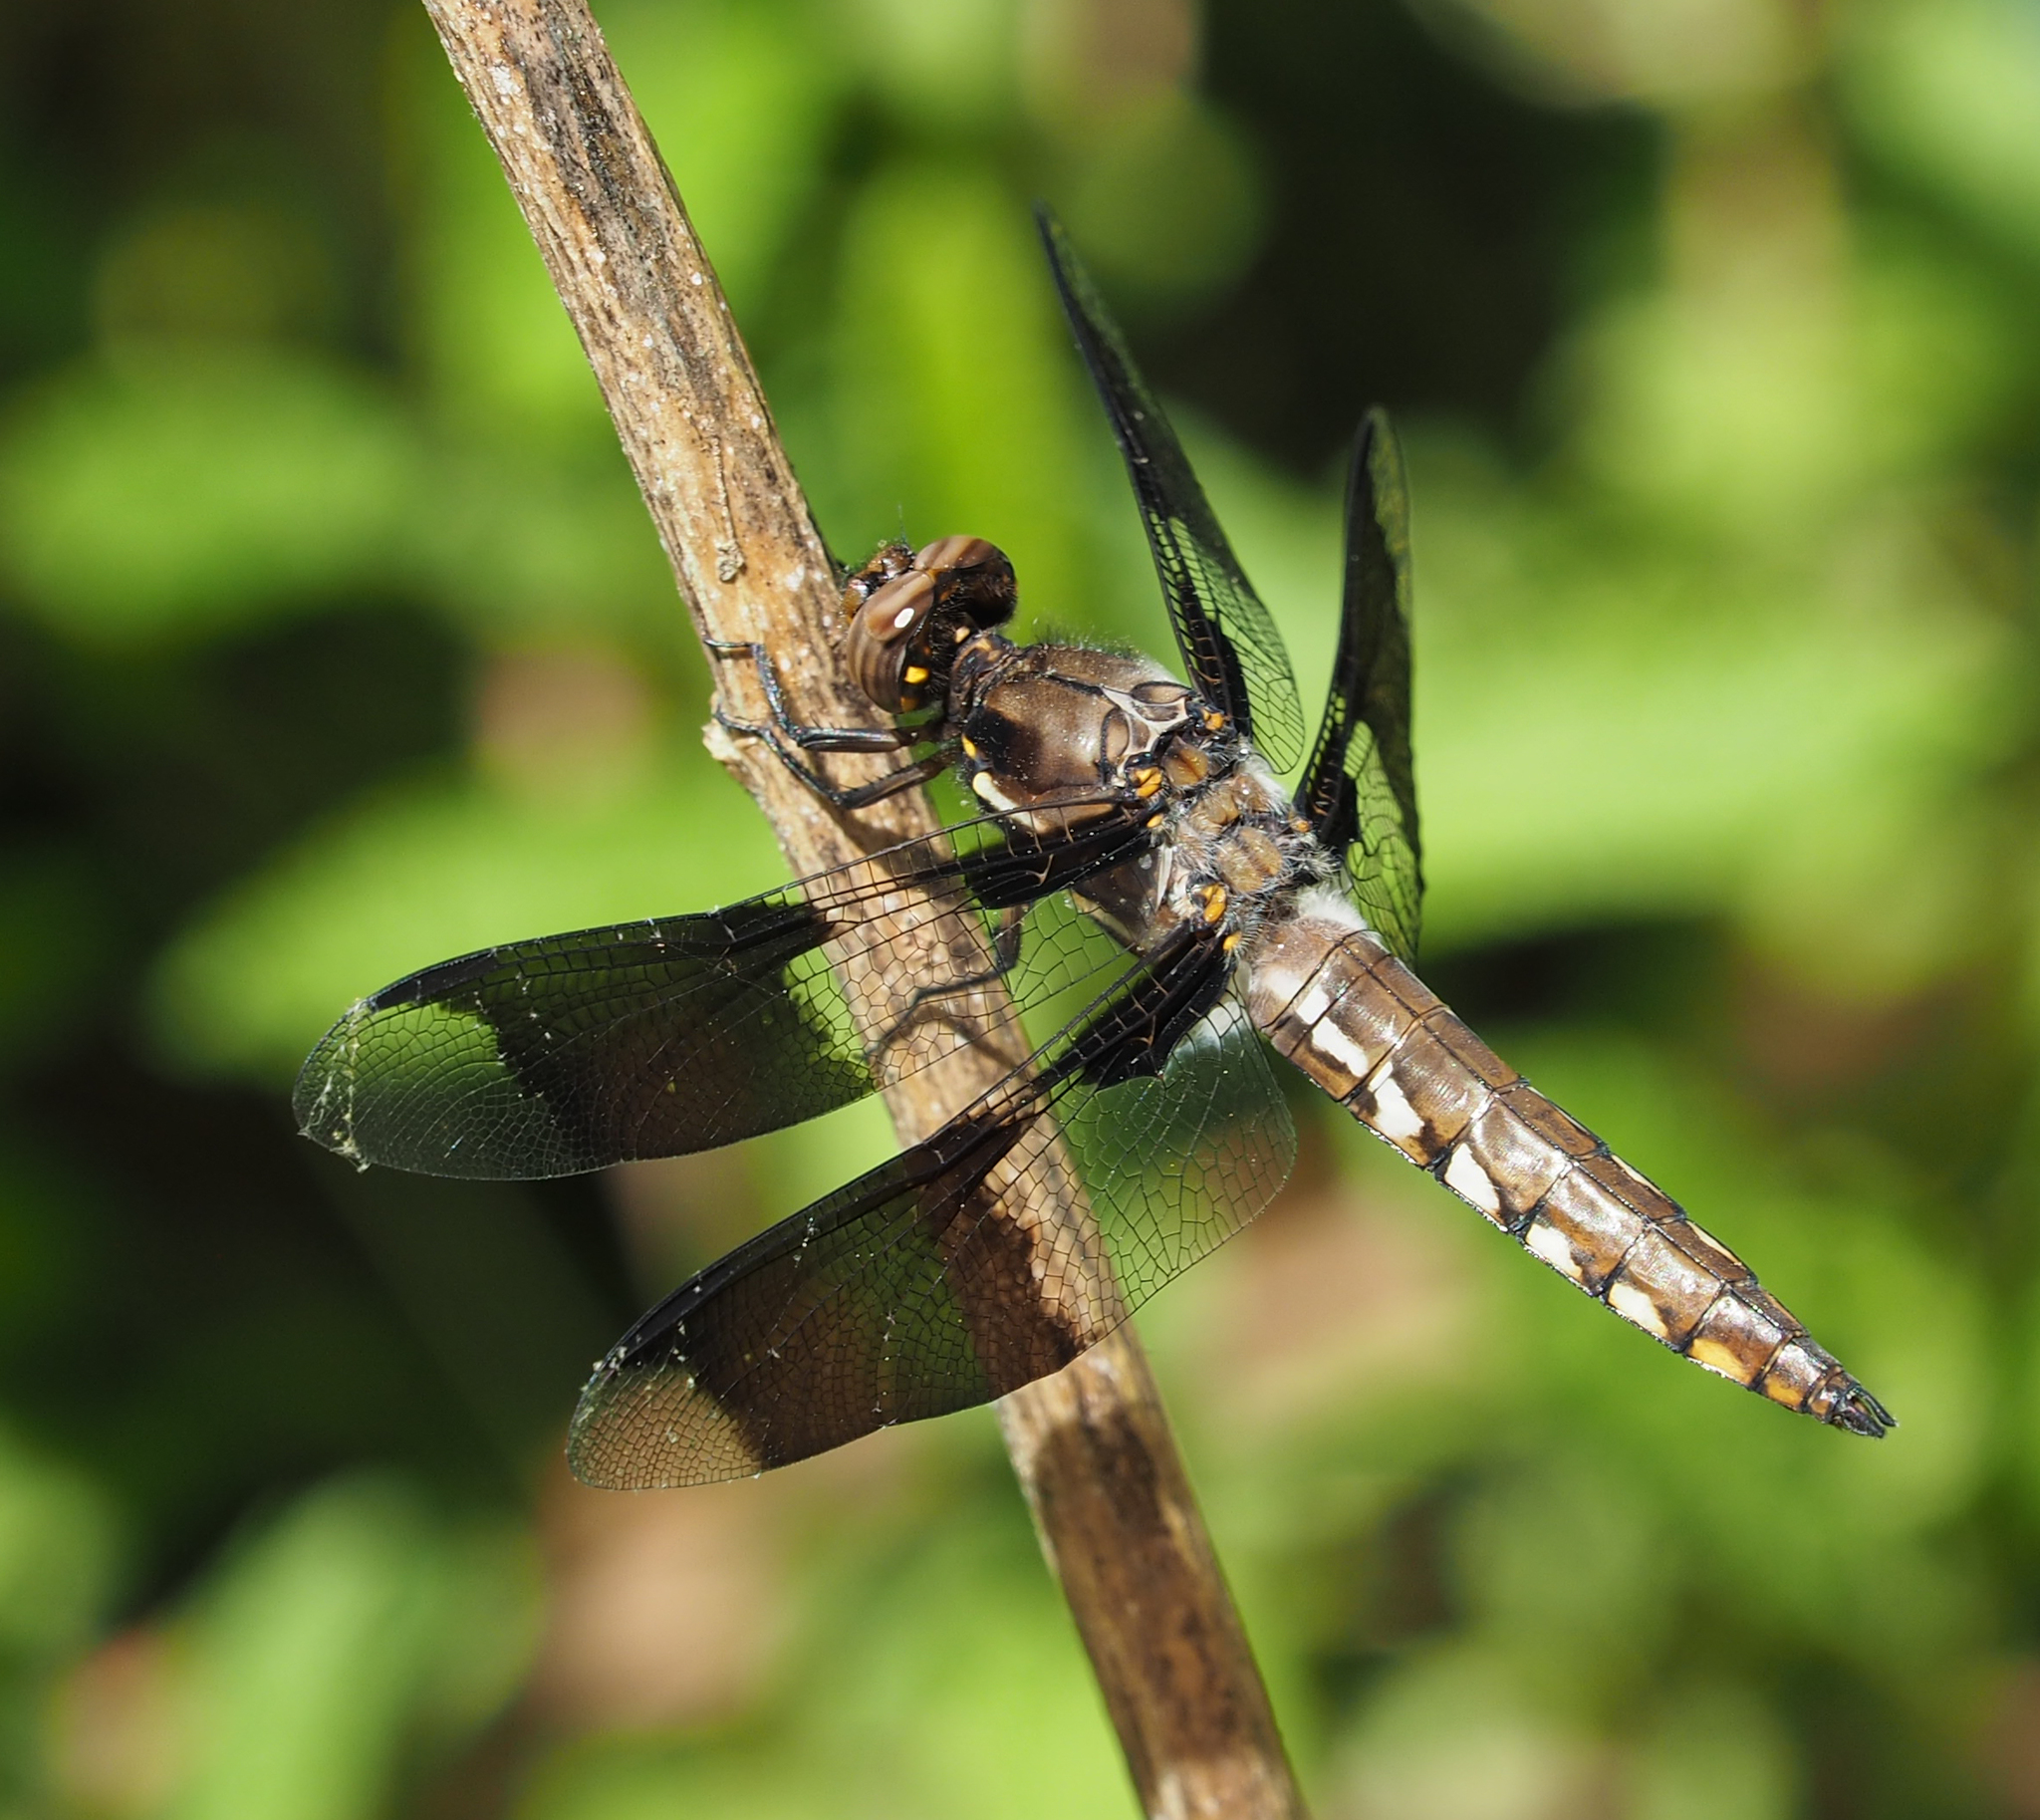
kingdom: Animalia
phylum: Arthropoda
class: Insecta
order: Odonata
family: Libellulidae
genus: Plathemis
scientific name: Plathemis lydia
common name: Common whitetail
